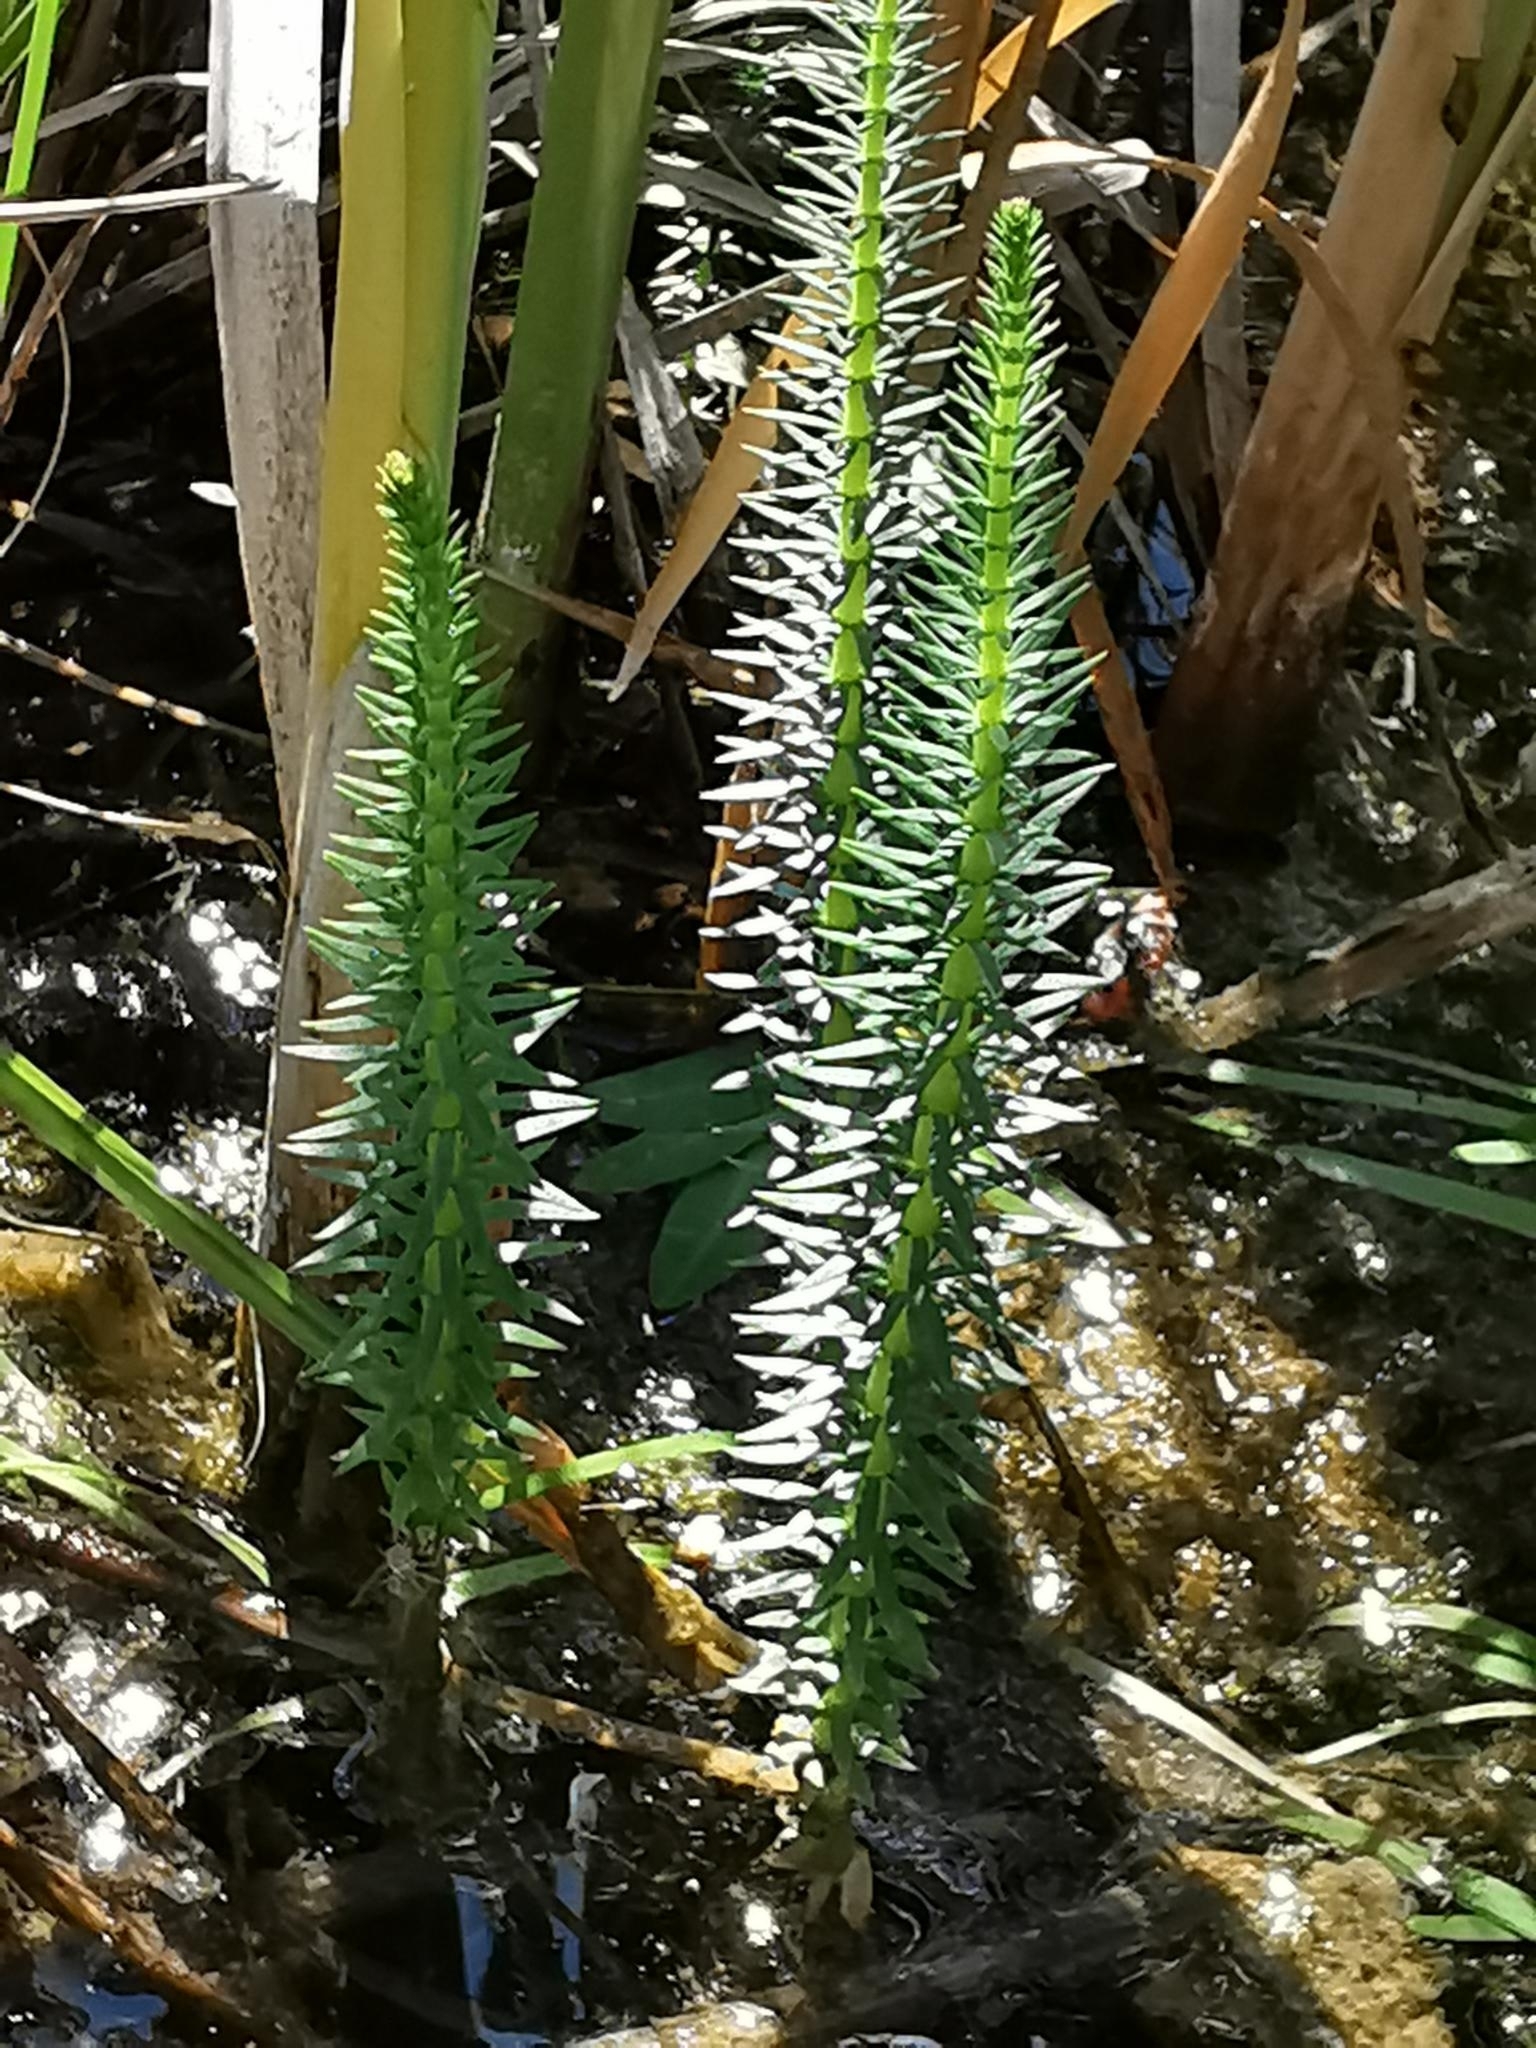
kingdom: Plantae
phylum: Tracheophyta
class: Magnoliopsida
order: Lamiales
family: Plantaginaceae
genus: Hippuris
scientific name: Hippuris vulgaris
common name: Mare's-tail
